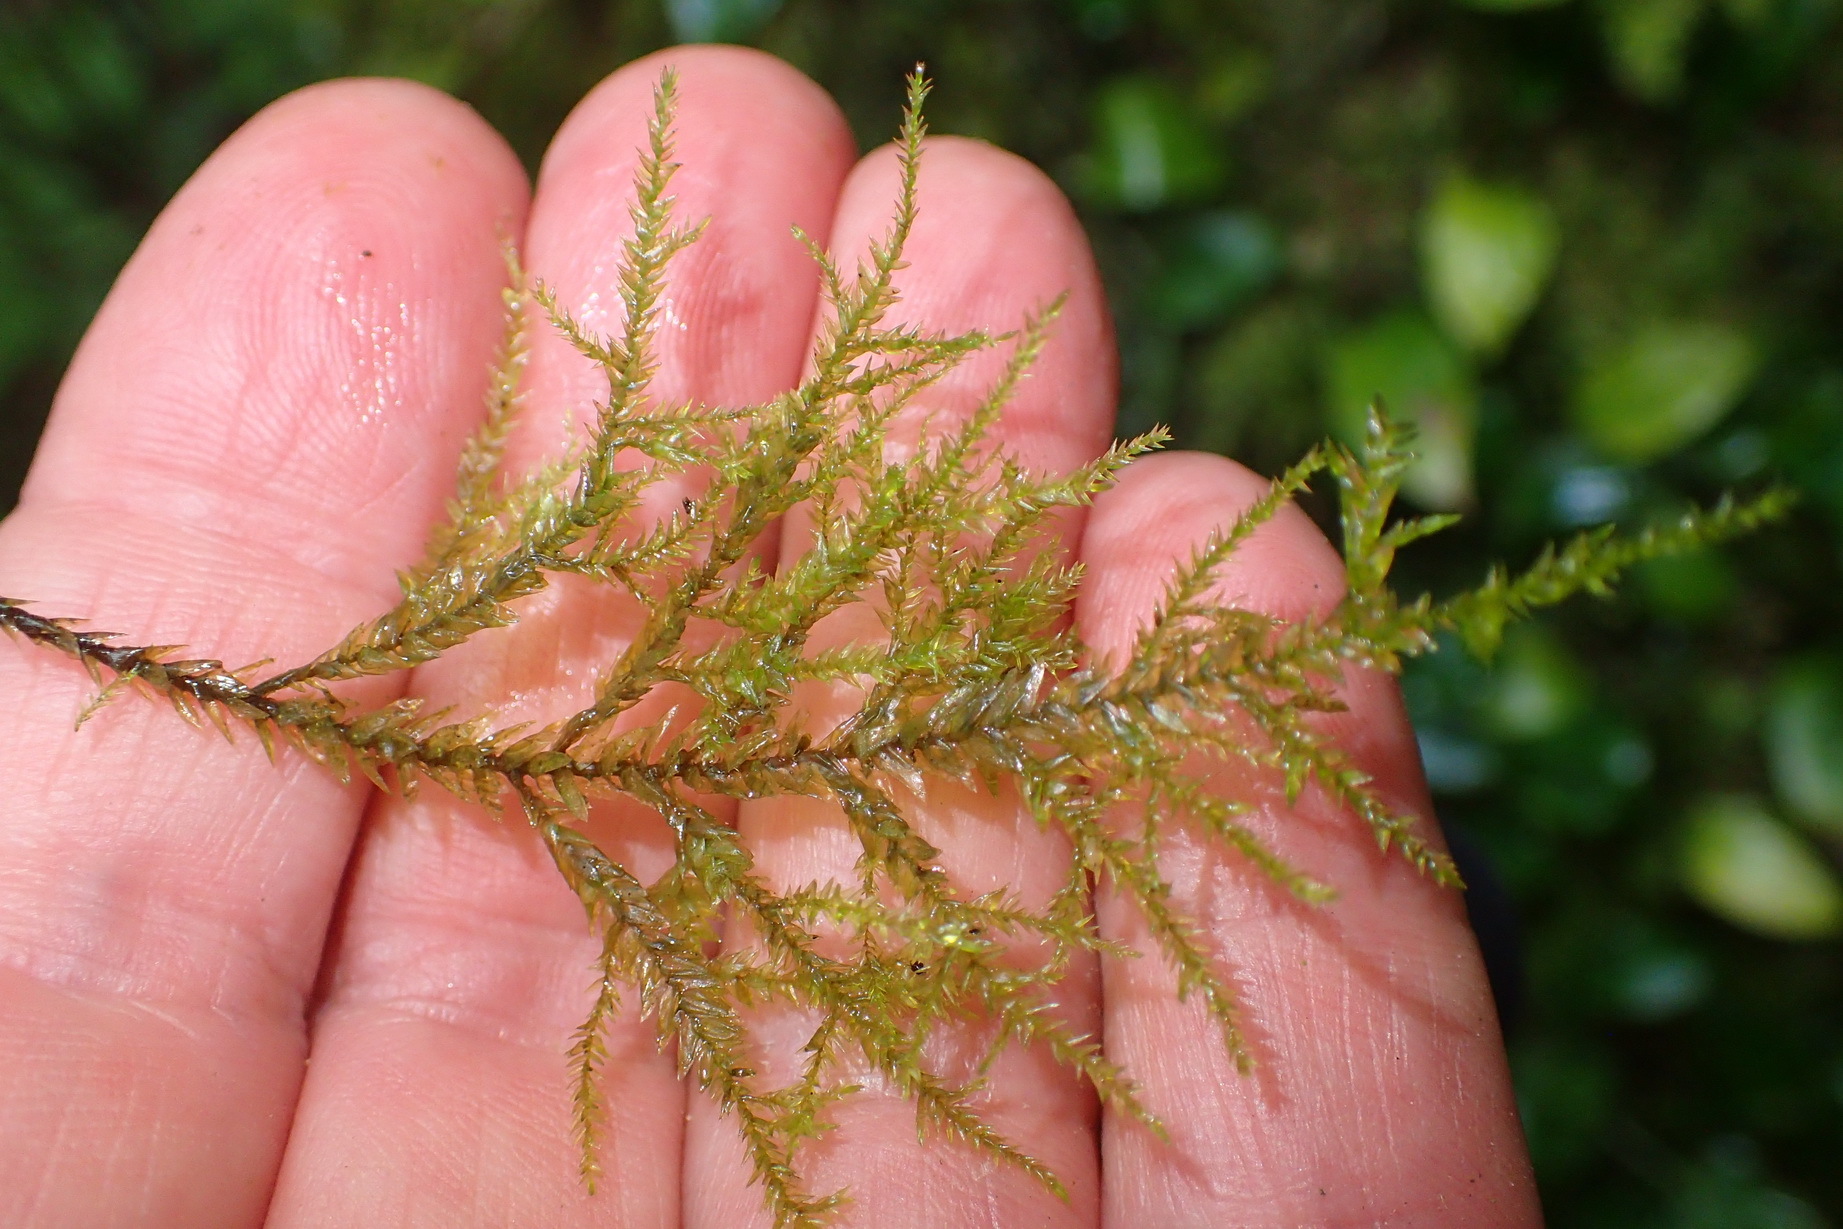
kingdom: Plantae
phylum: Bryophyta
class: Bryopsida
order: Hypnales
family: Neckeraceae
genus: Porotrichum
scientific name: Porotrichum madagassum
